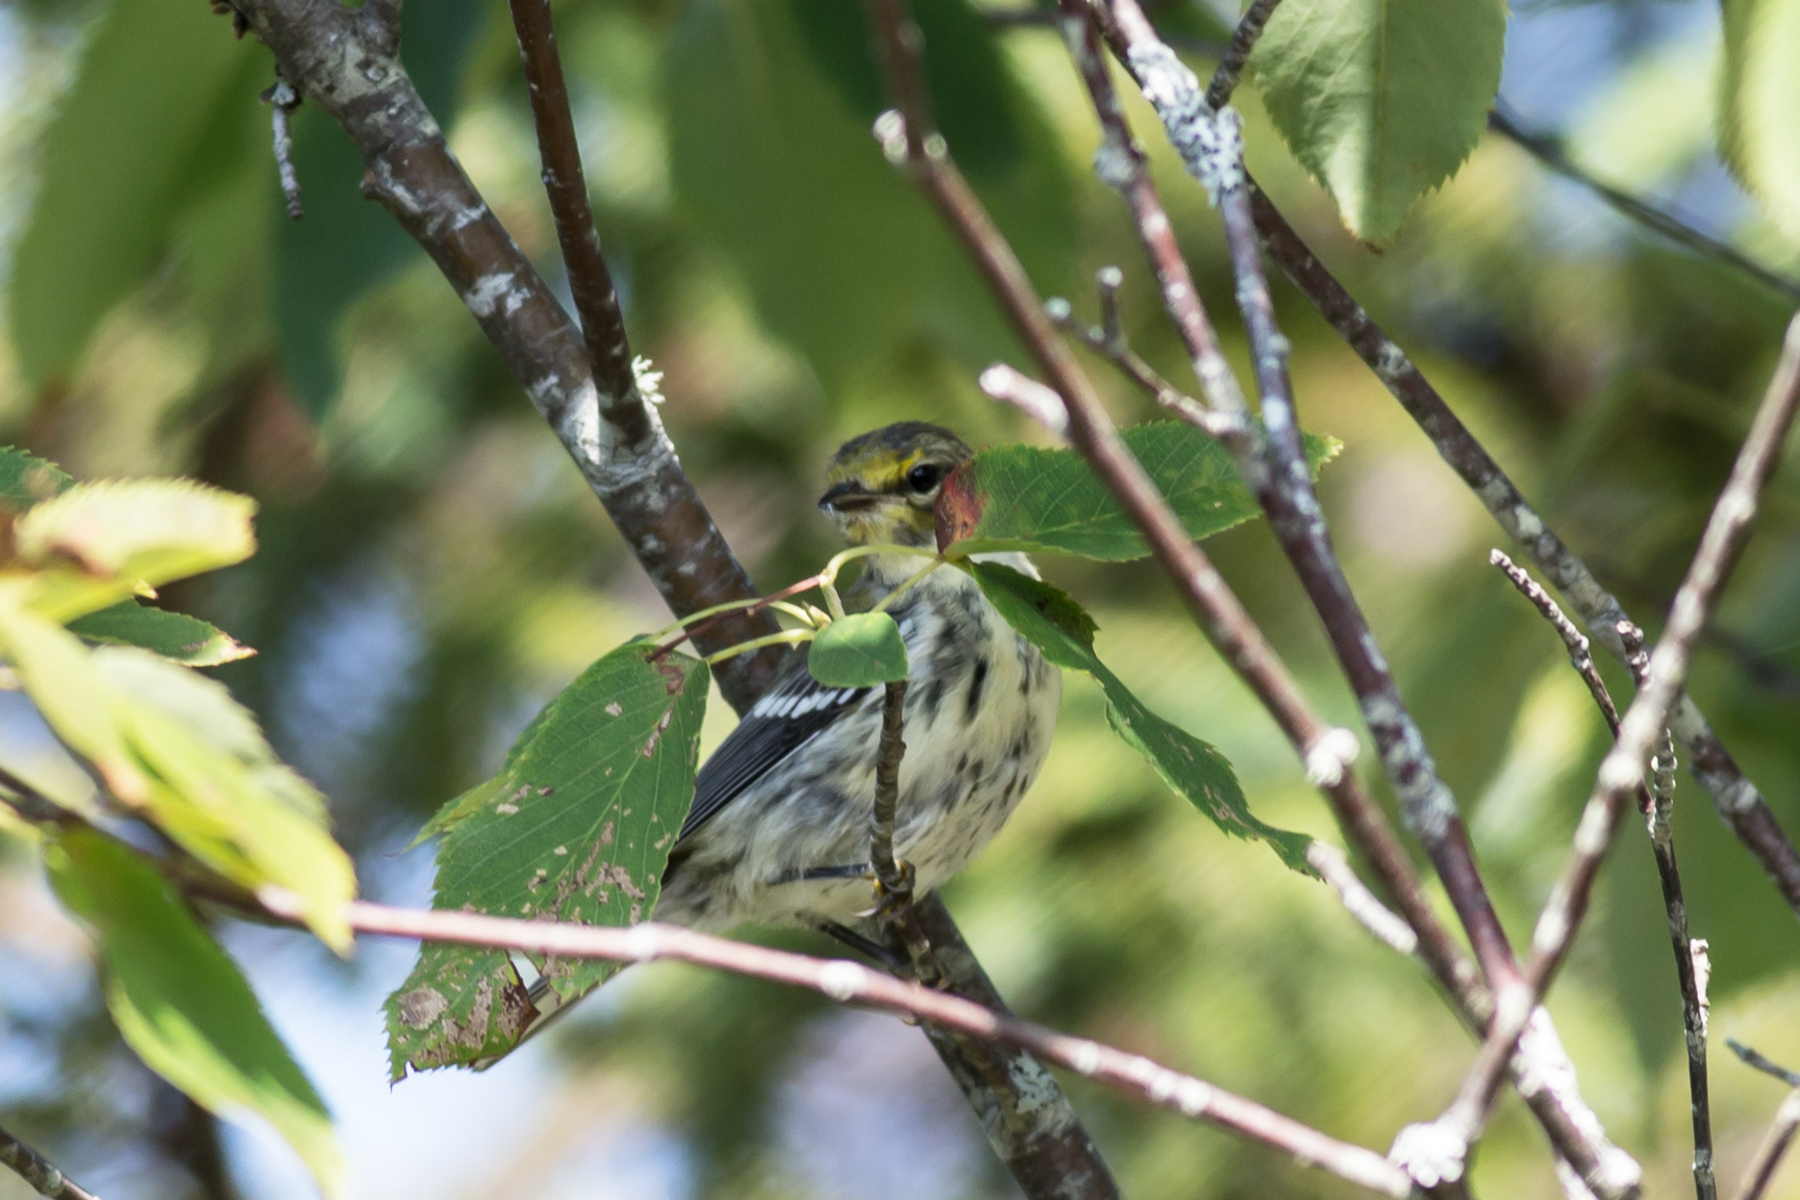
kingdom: Animalia
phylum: Chordata
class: Aves
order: Passeriformes
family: Parulidae
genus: Setophaga
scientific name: Setophaga virens
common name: Black-throated green warbler
